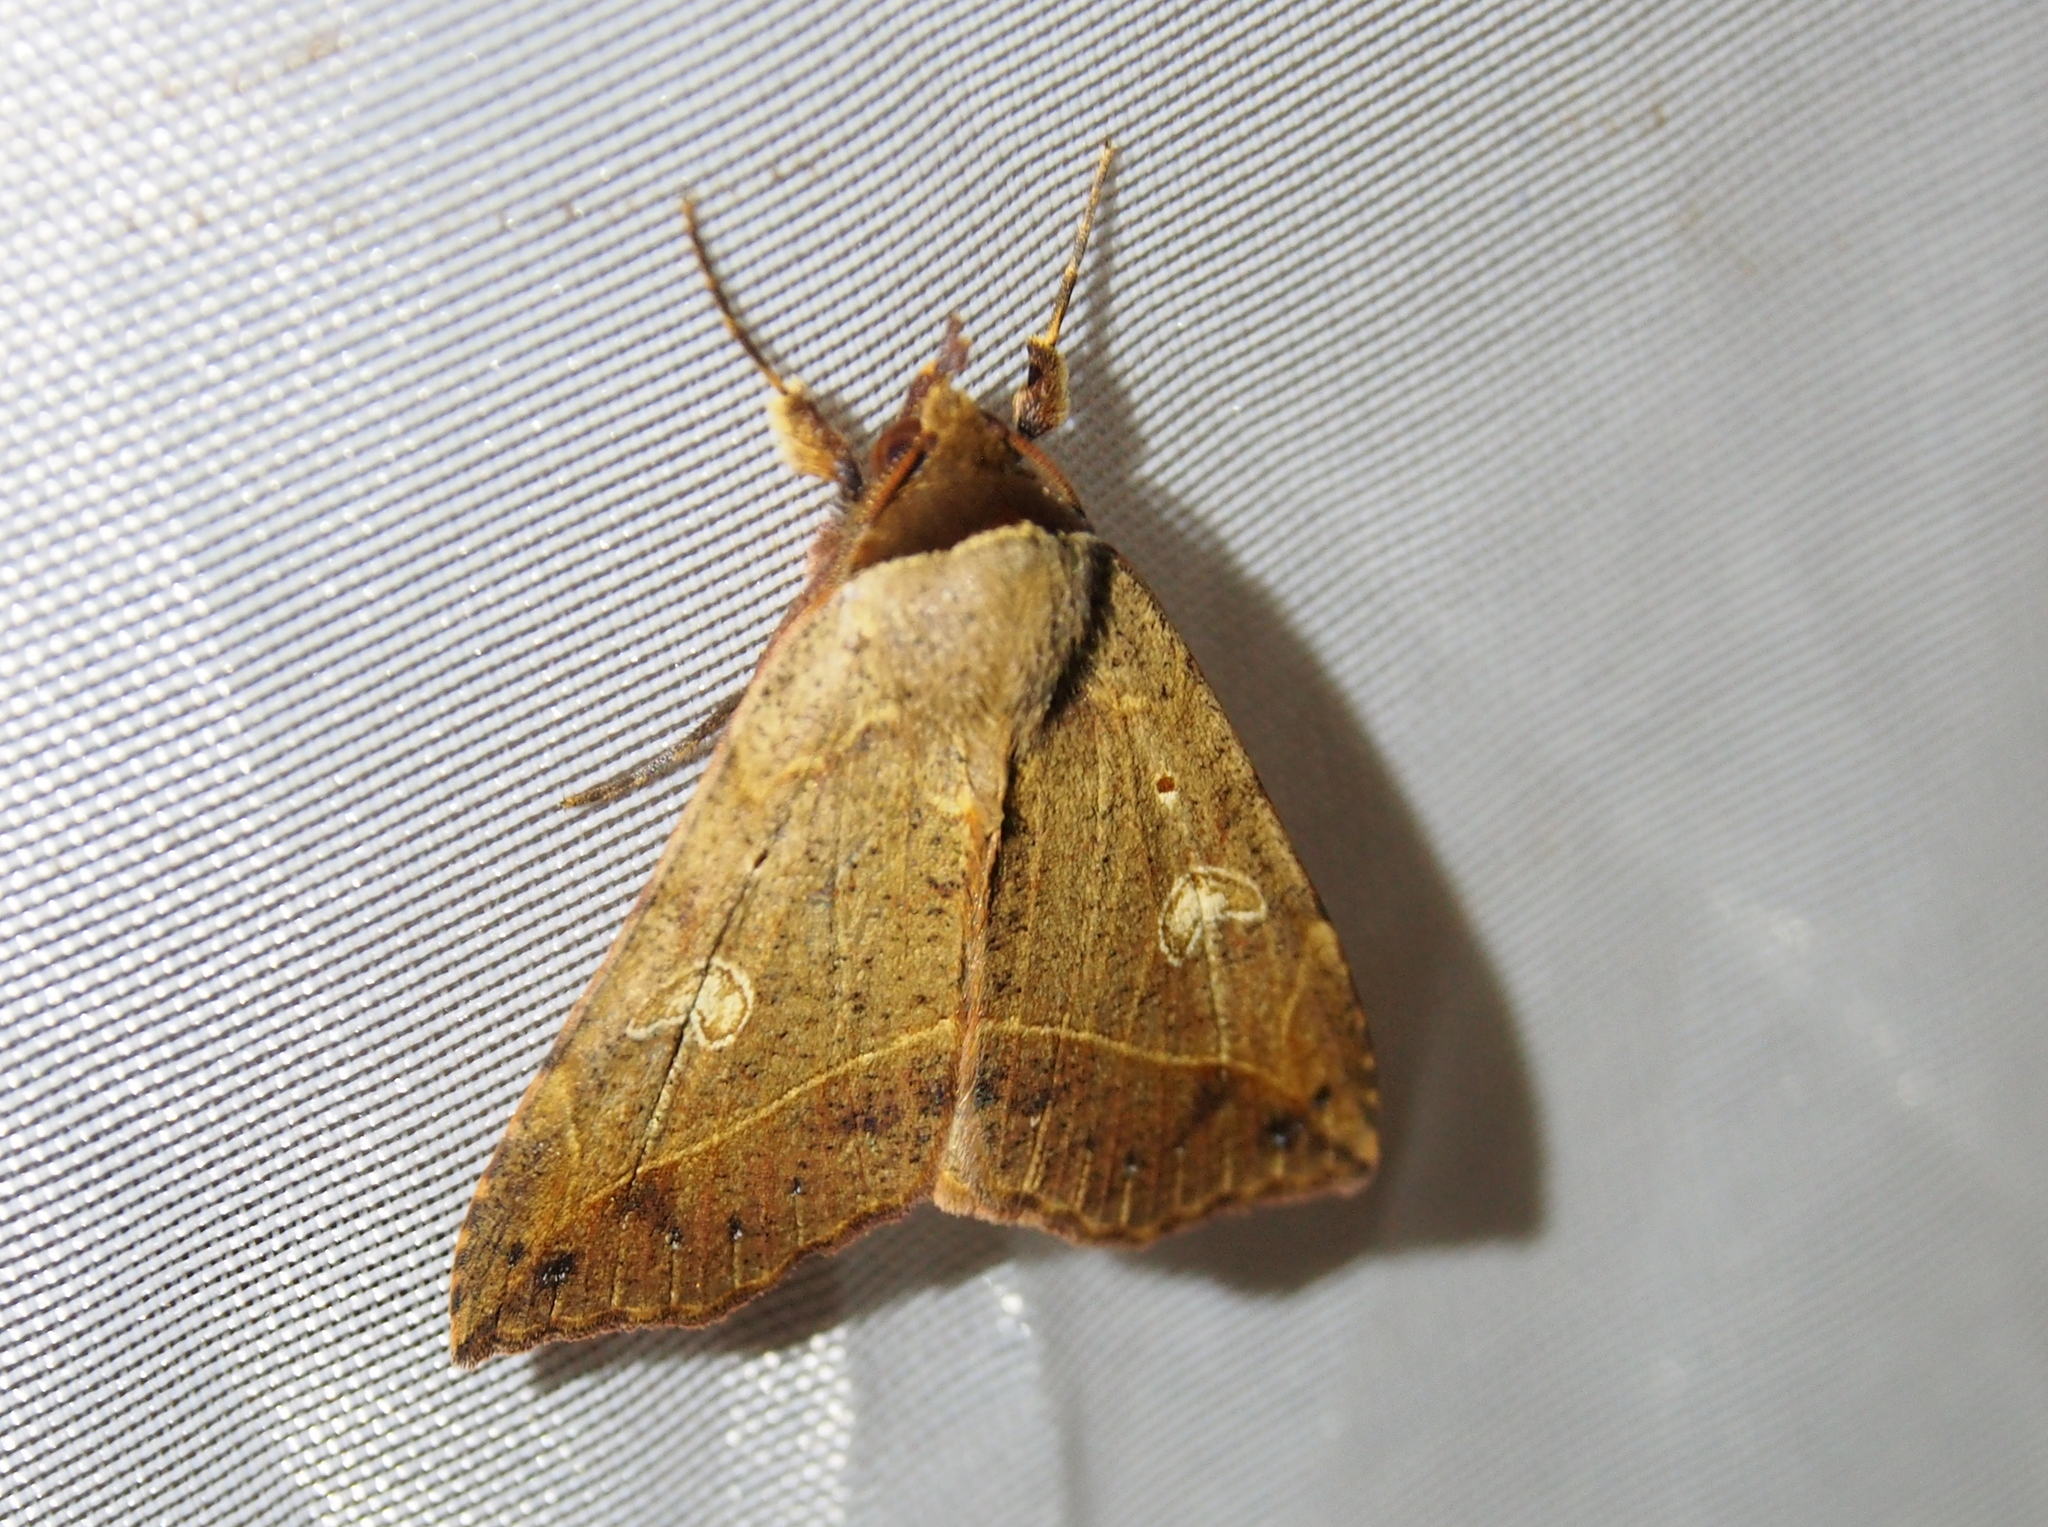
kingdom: Animalia
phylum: Arthropoda
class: Insecta
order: Lepidoptera
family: Erebidae
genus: Goniocarsia
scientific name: Goniocarsia electrica
